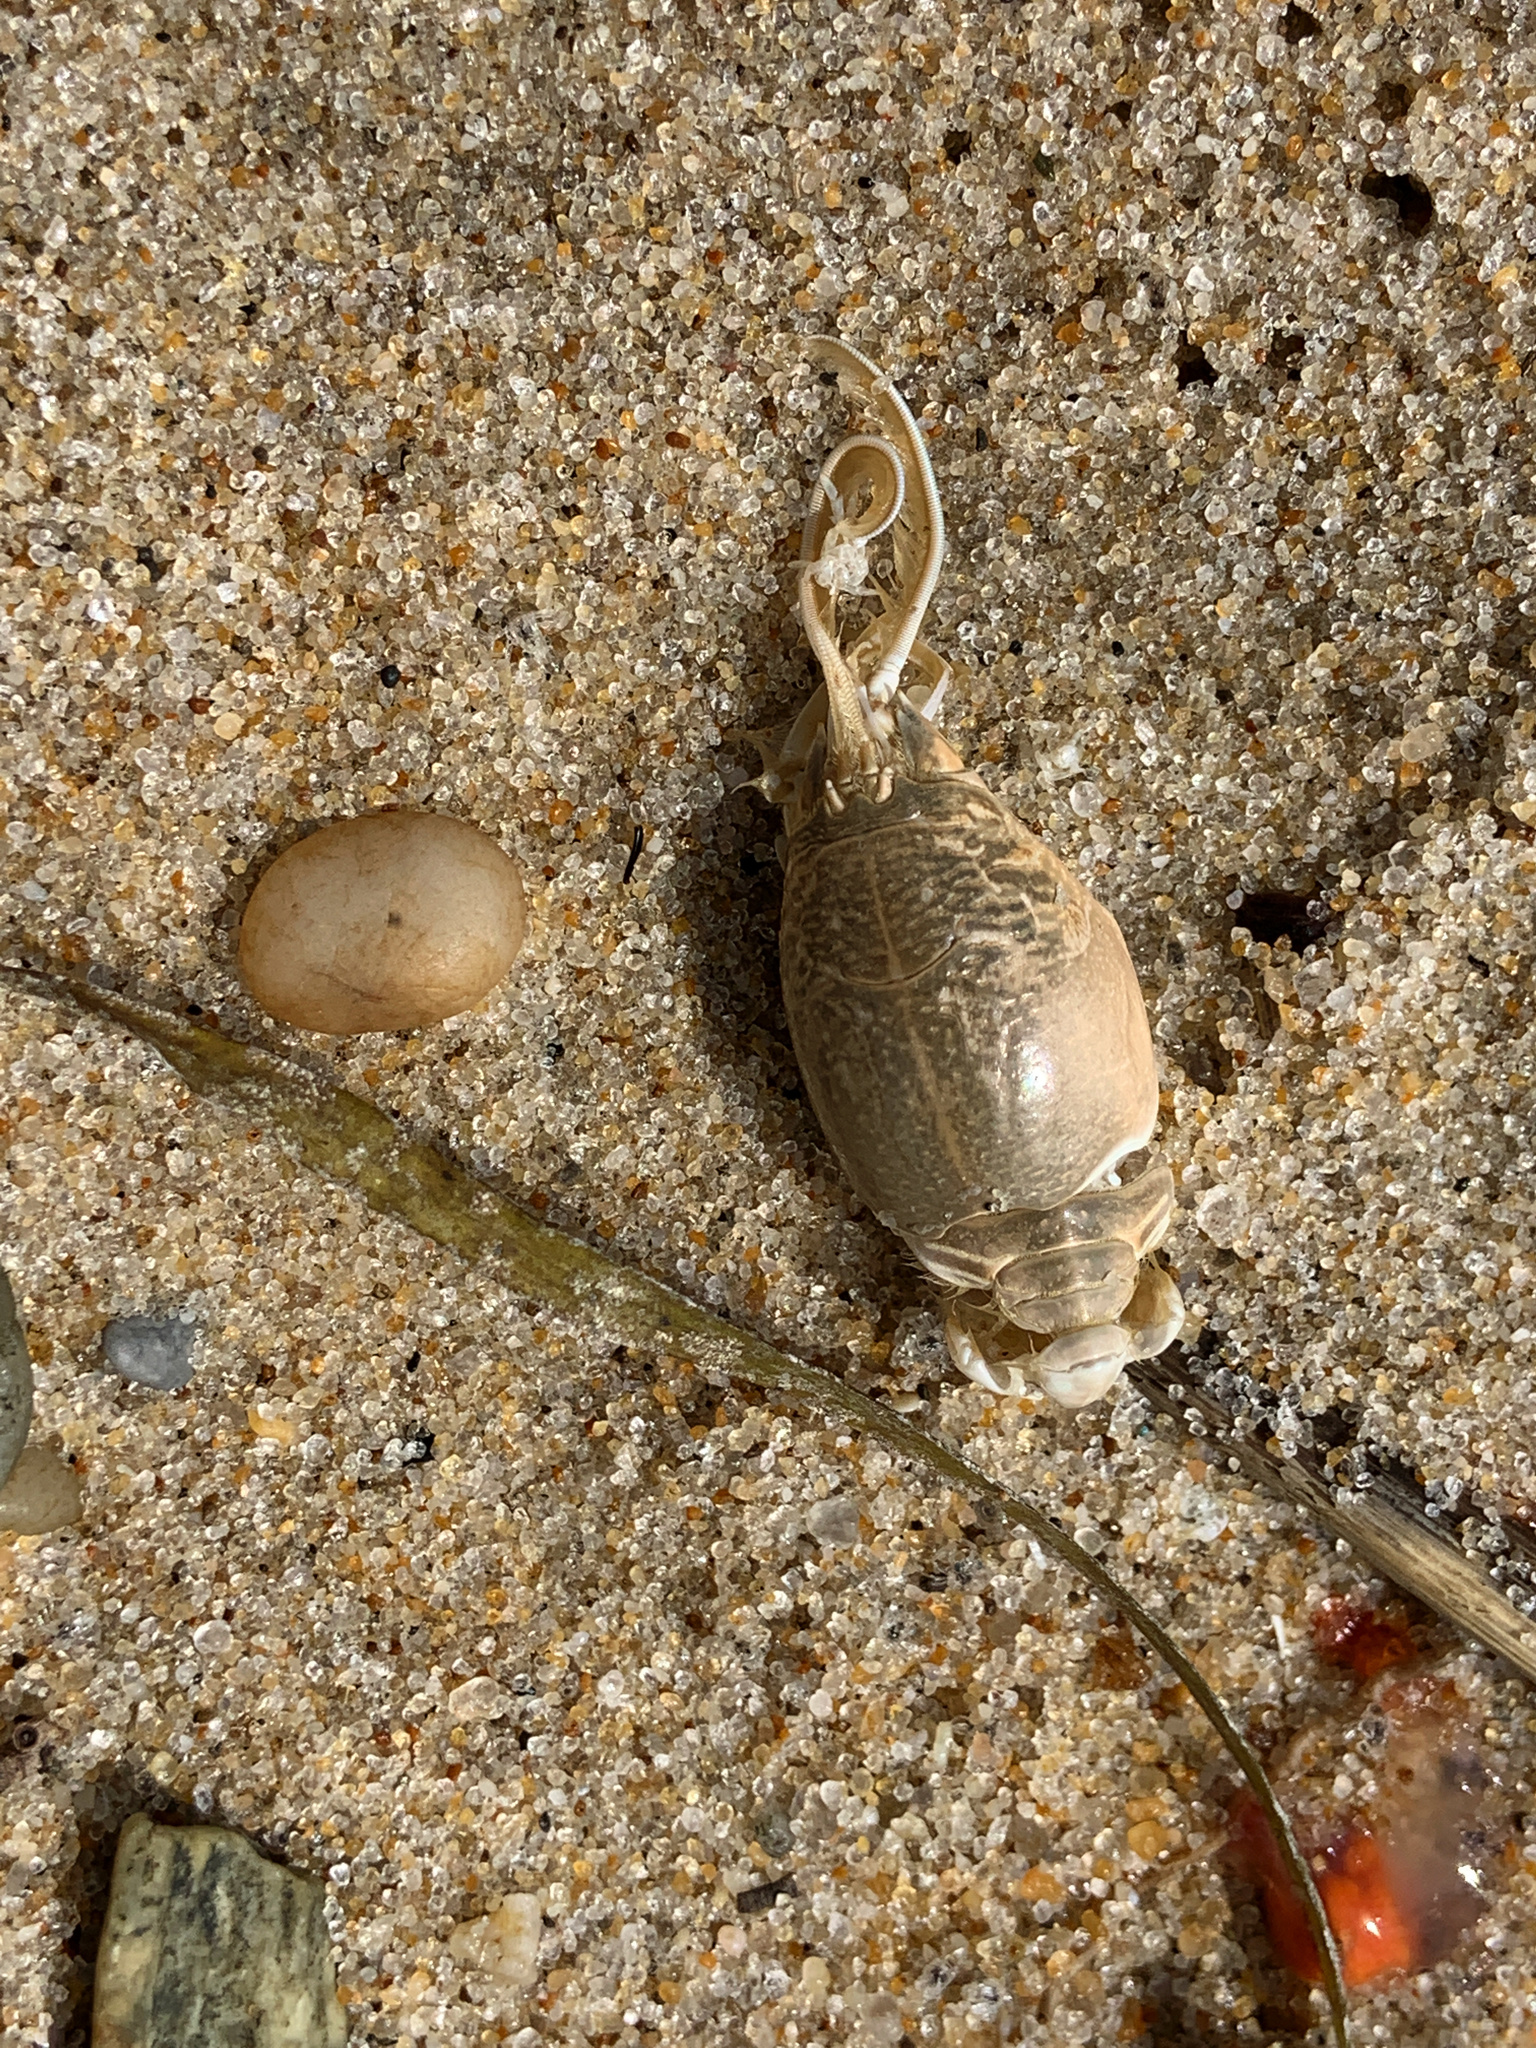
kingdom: Animalia
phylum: Arthropoda
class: Malacostraca
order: Decapoda
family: Hippidae
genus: Emerita
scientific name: Emerita talpoida
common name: Atlantic sand crab
